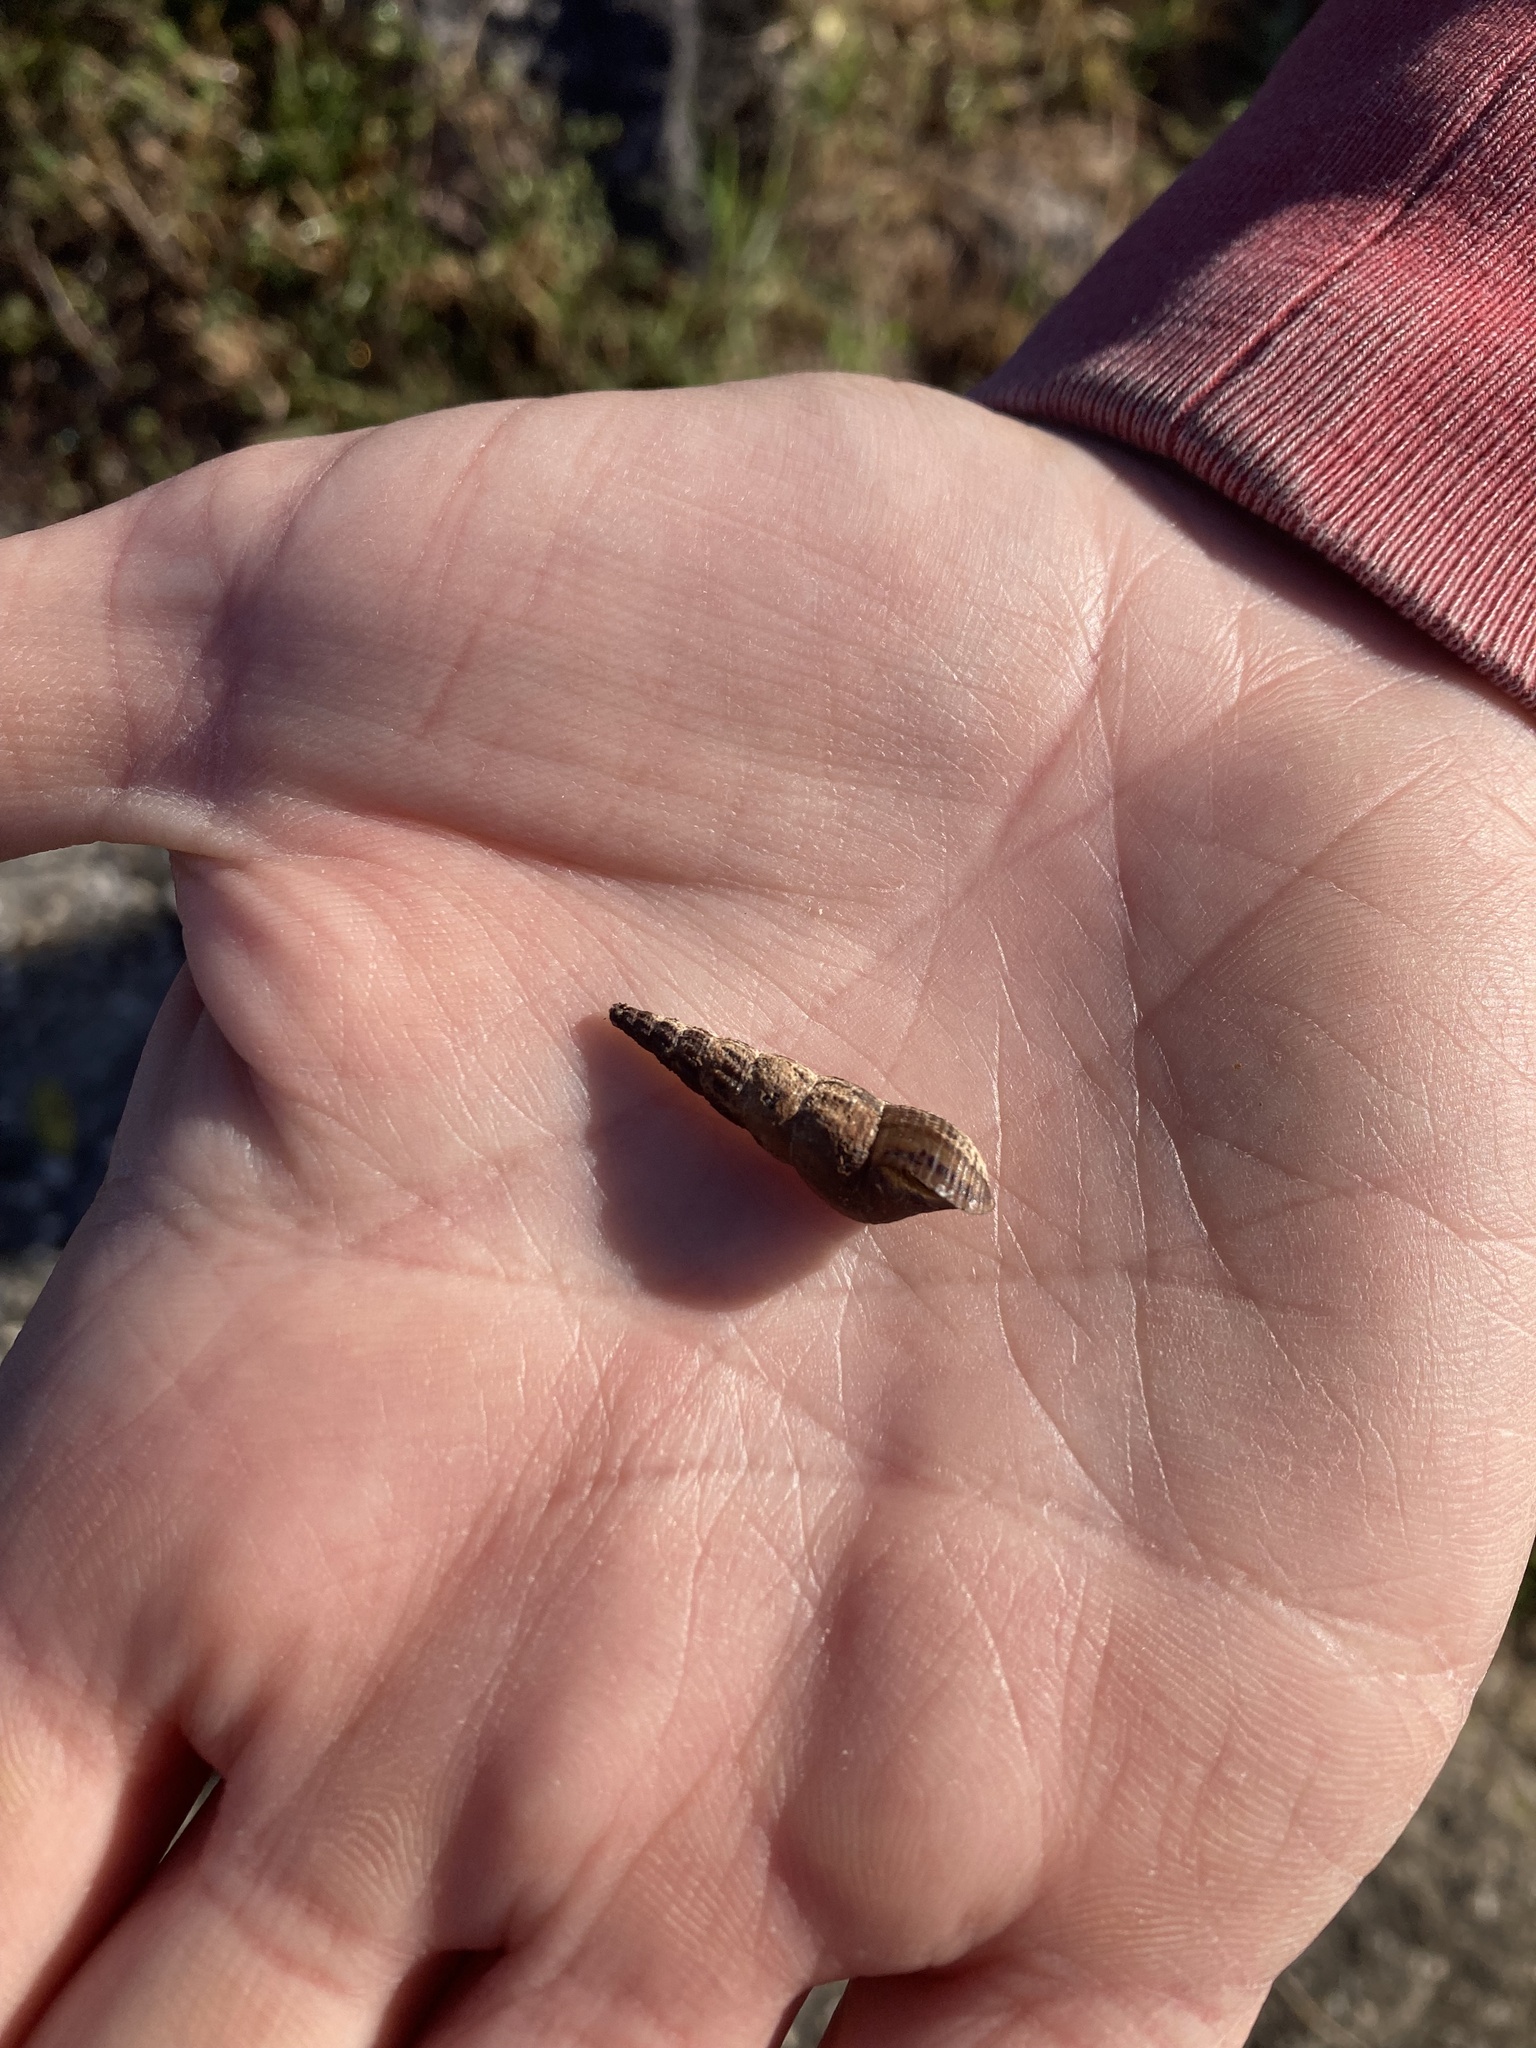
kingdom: Animalia
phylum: Mollusca
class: Gastropoda
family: Thiaridae
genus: Melanoides
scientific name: Melanoides tuberculata
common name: Red-rim melania
